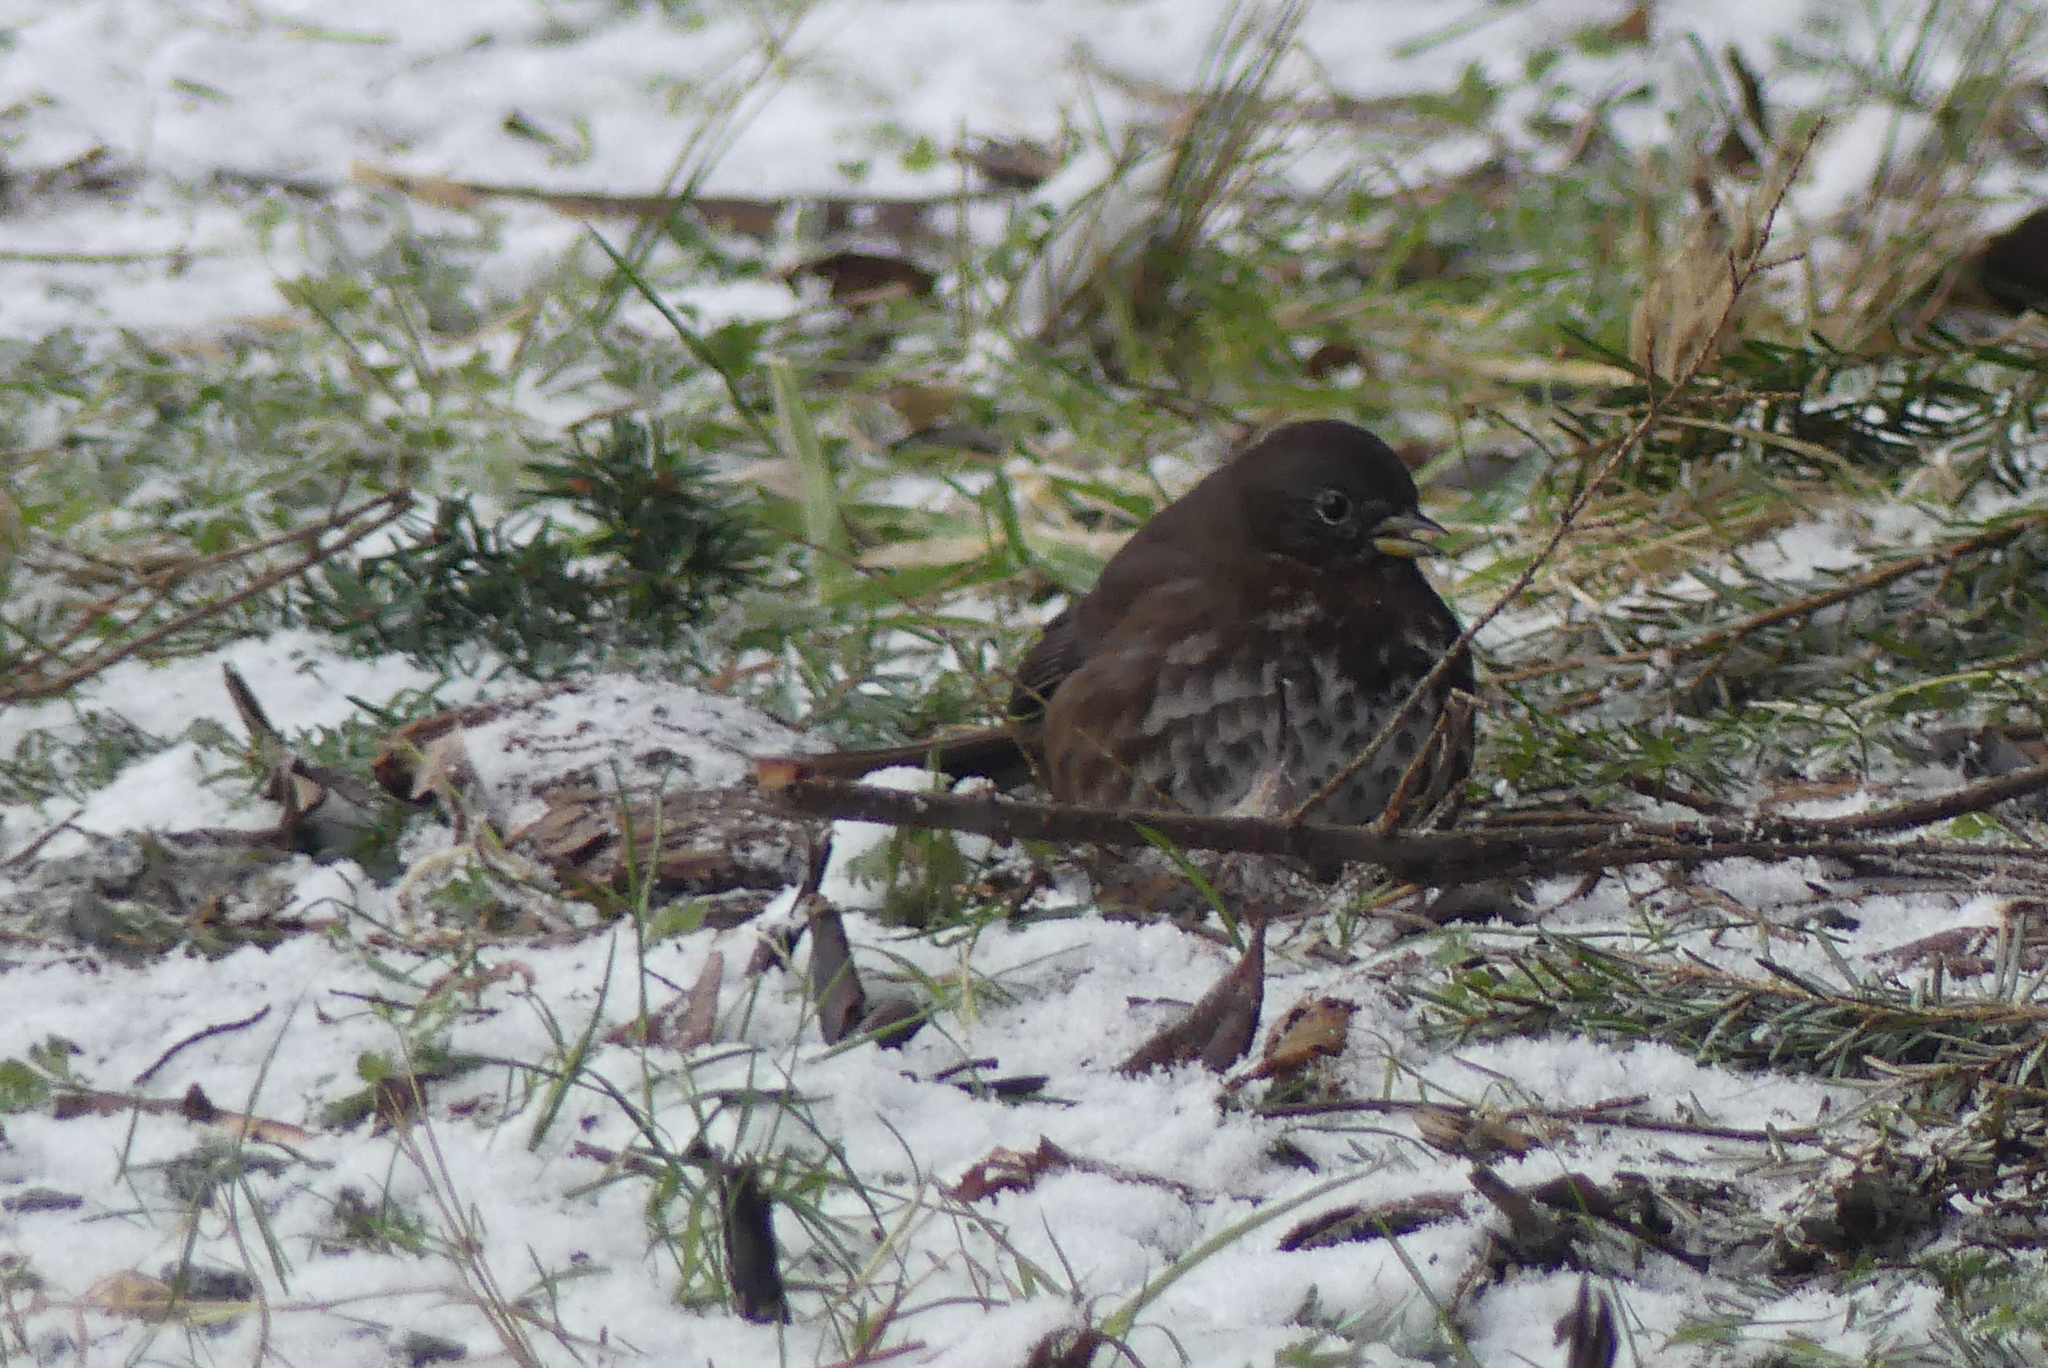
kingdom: Animalia
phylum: Chordata
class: Aves
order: Passeriformes
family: Passerellidae
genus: Passerella
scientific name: Passerella iliaca
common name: Fox sparrow
